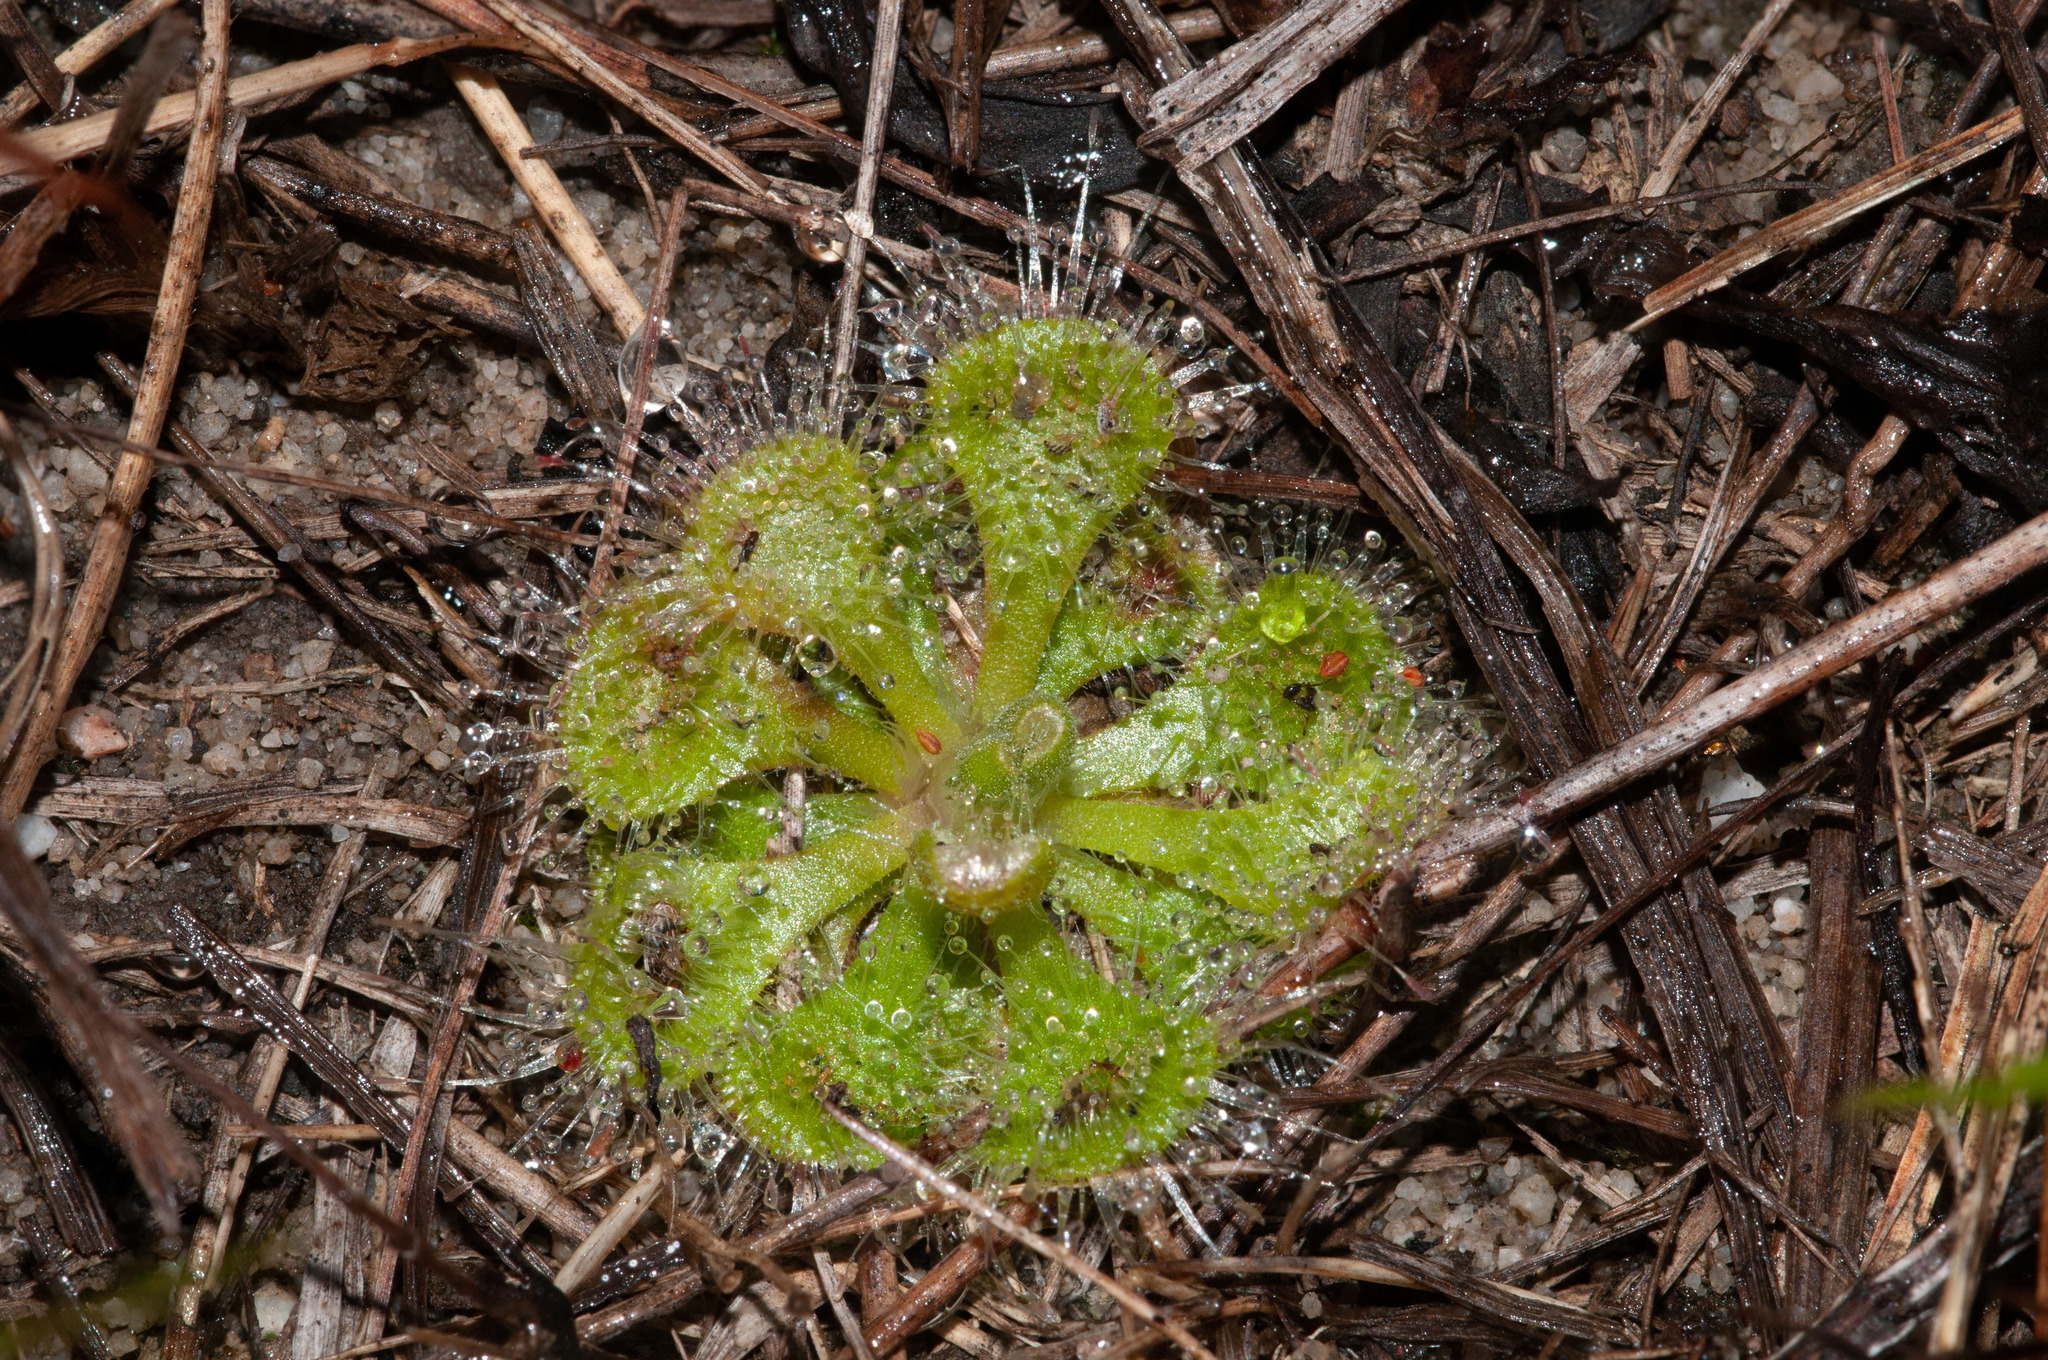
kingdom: Plantae
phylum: Tracheophyta
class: Magnoliopsida
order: Caryophyllales
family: Droseraceae
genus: Drosera
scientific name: Drosera spatulata
